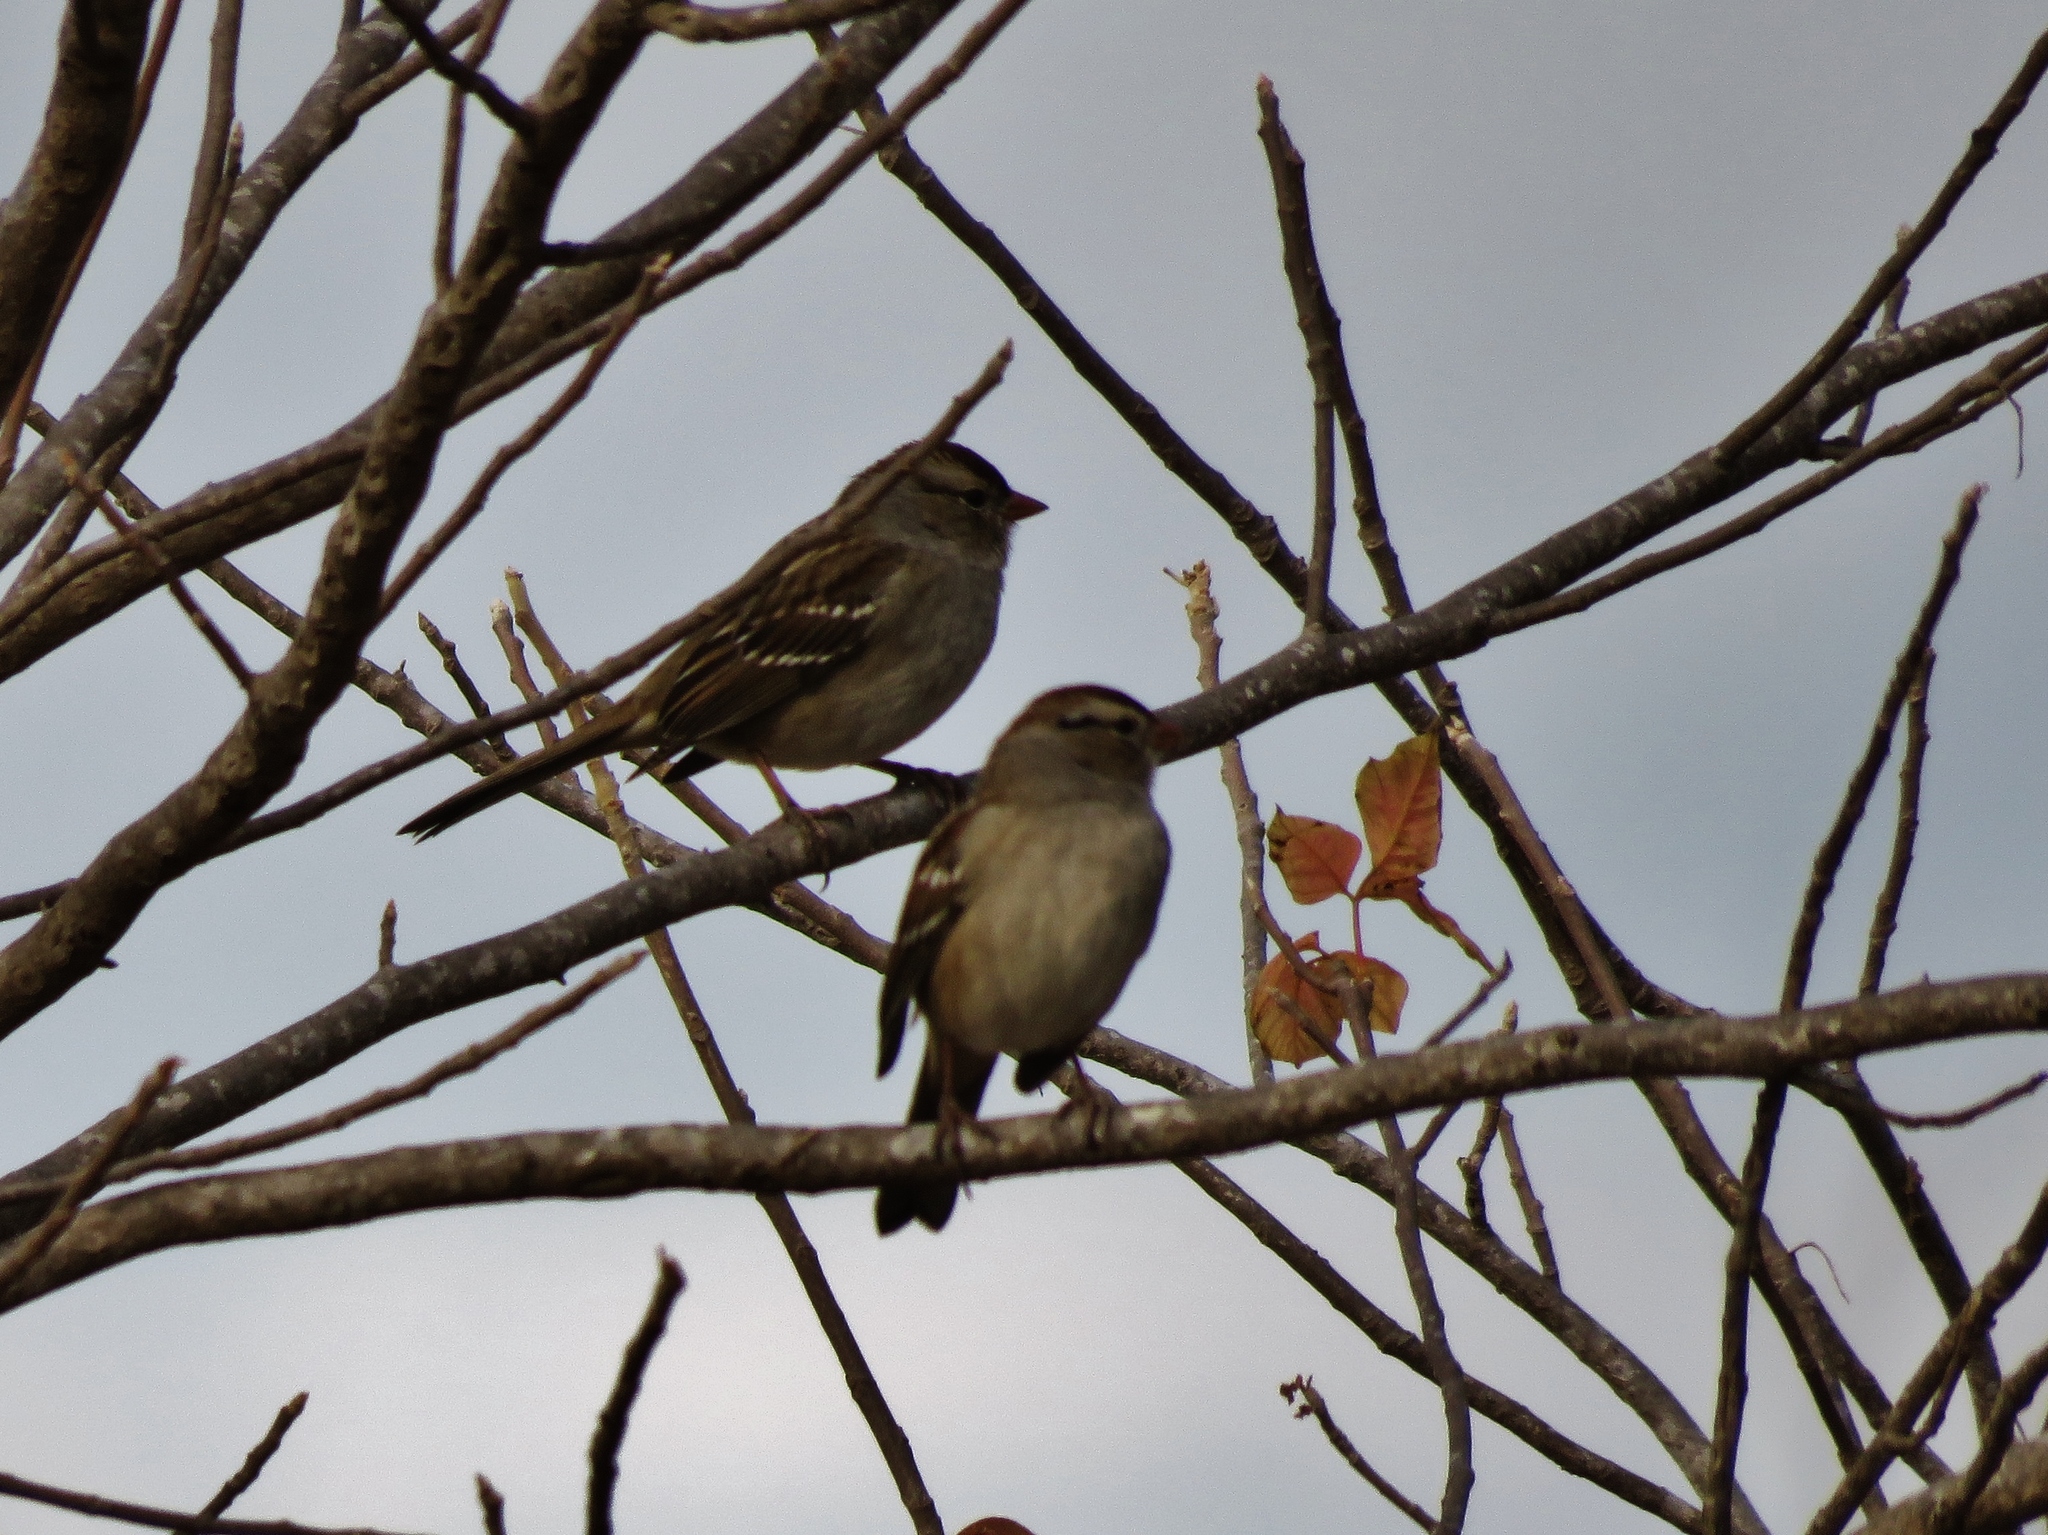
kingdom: Animalia
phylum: Chordata
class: Aves
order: Passeriformes
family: Passerellidae
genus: Spizella
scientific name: Spizella passerina
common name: Chipping sparrow
